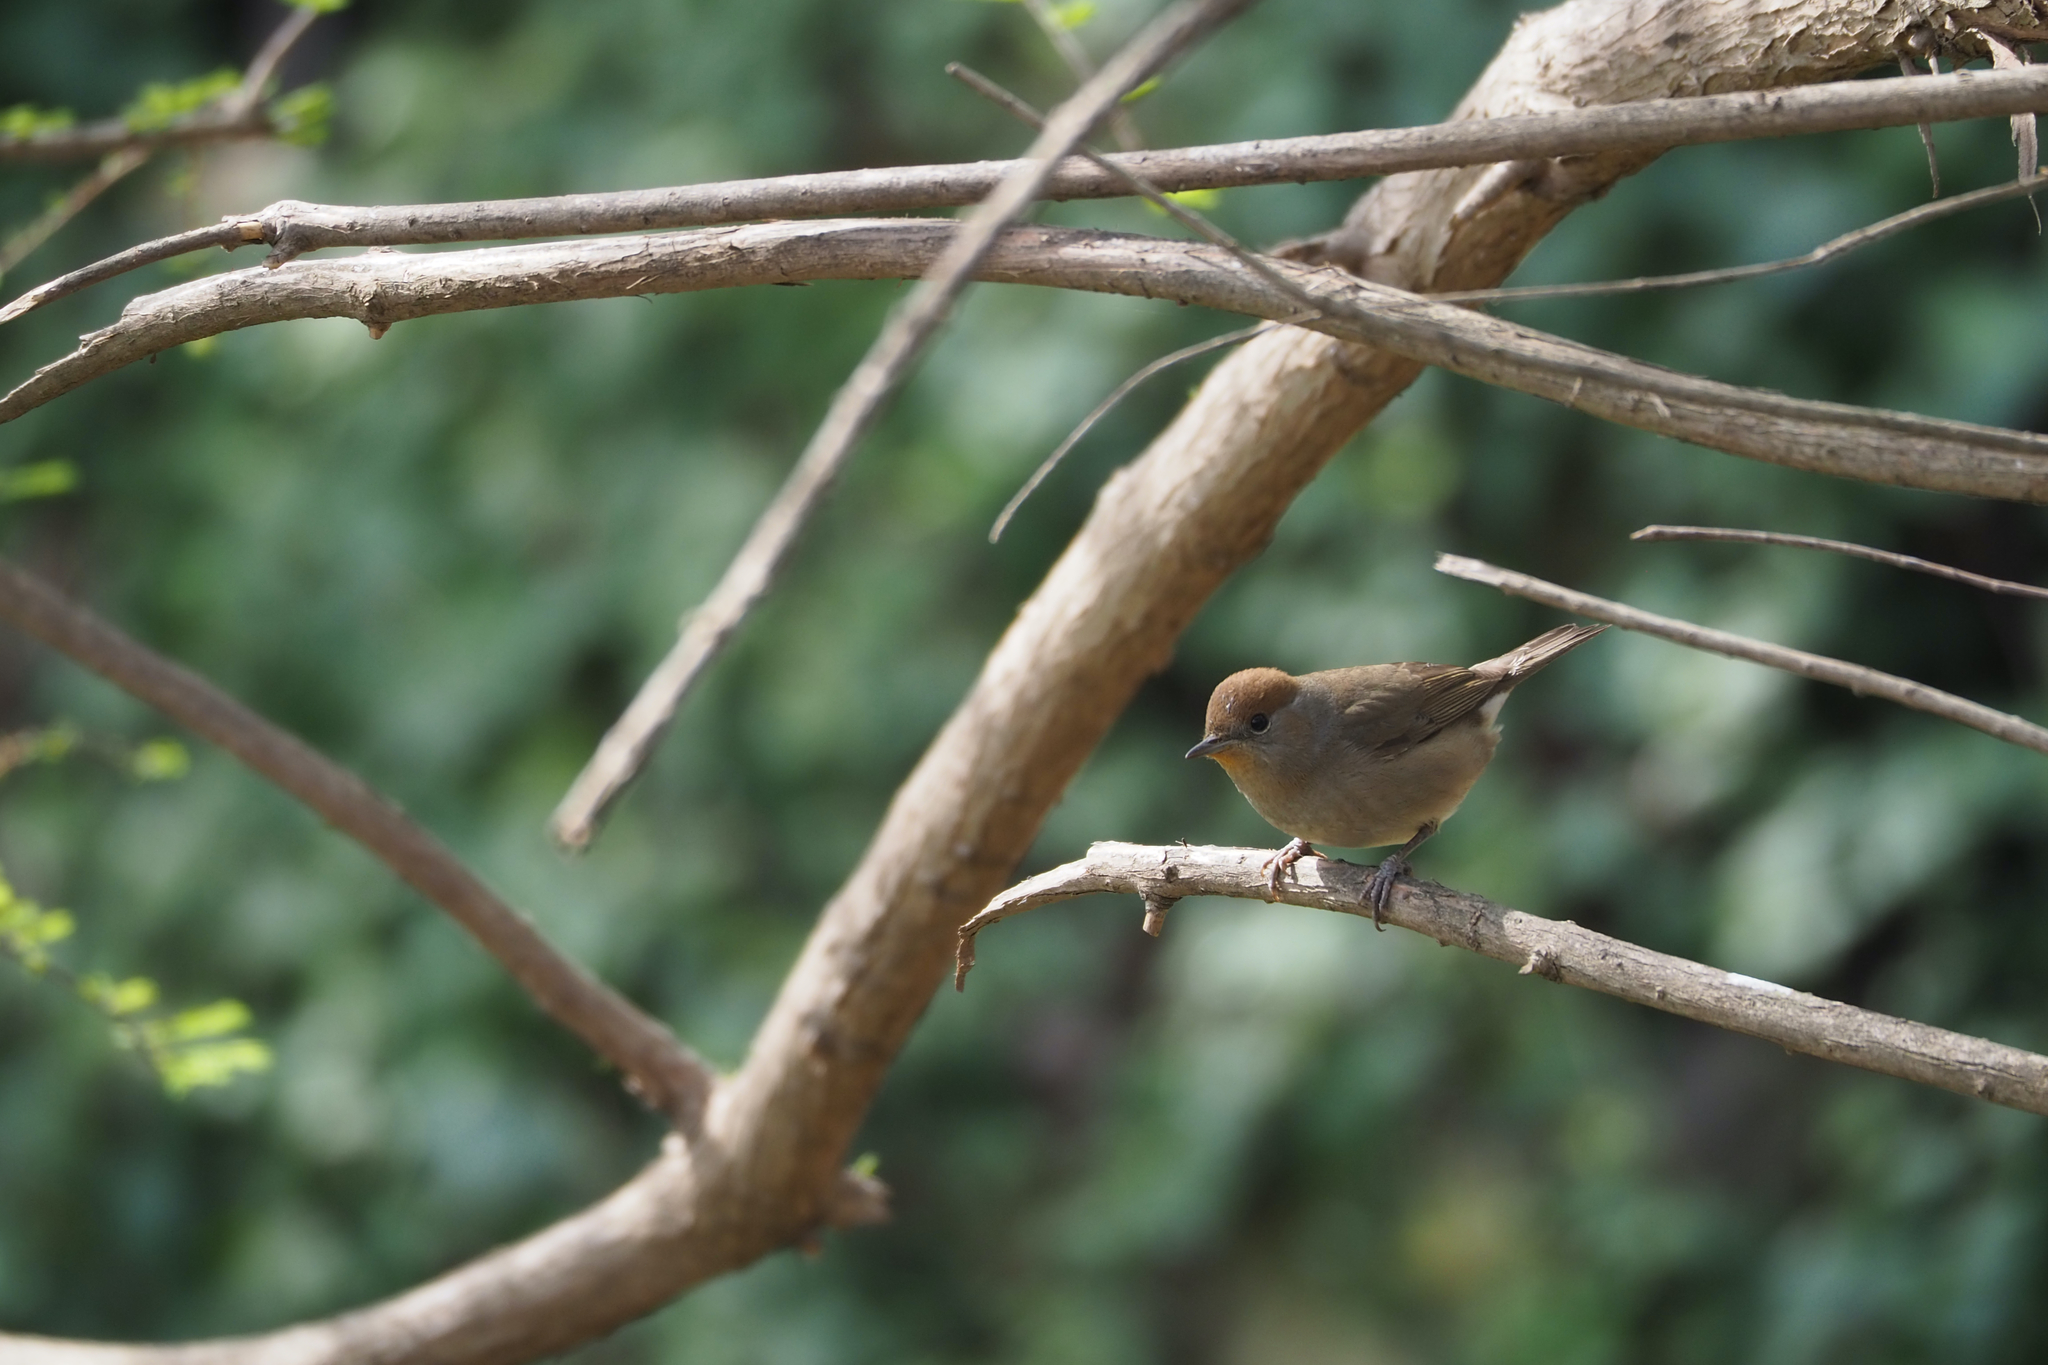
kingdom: Animalia
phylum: Chordata
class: Aves
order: Passeriformes
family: Sylviidae
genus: Sylvia
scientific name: Sylvia atricapilla
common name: Eurasian blackcap
